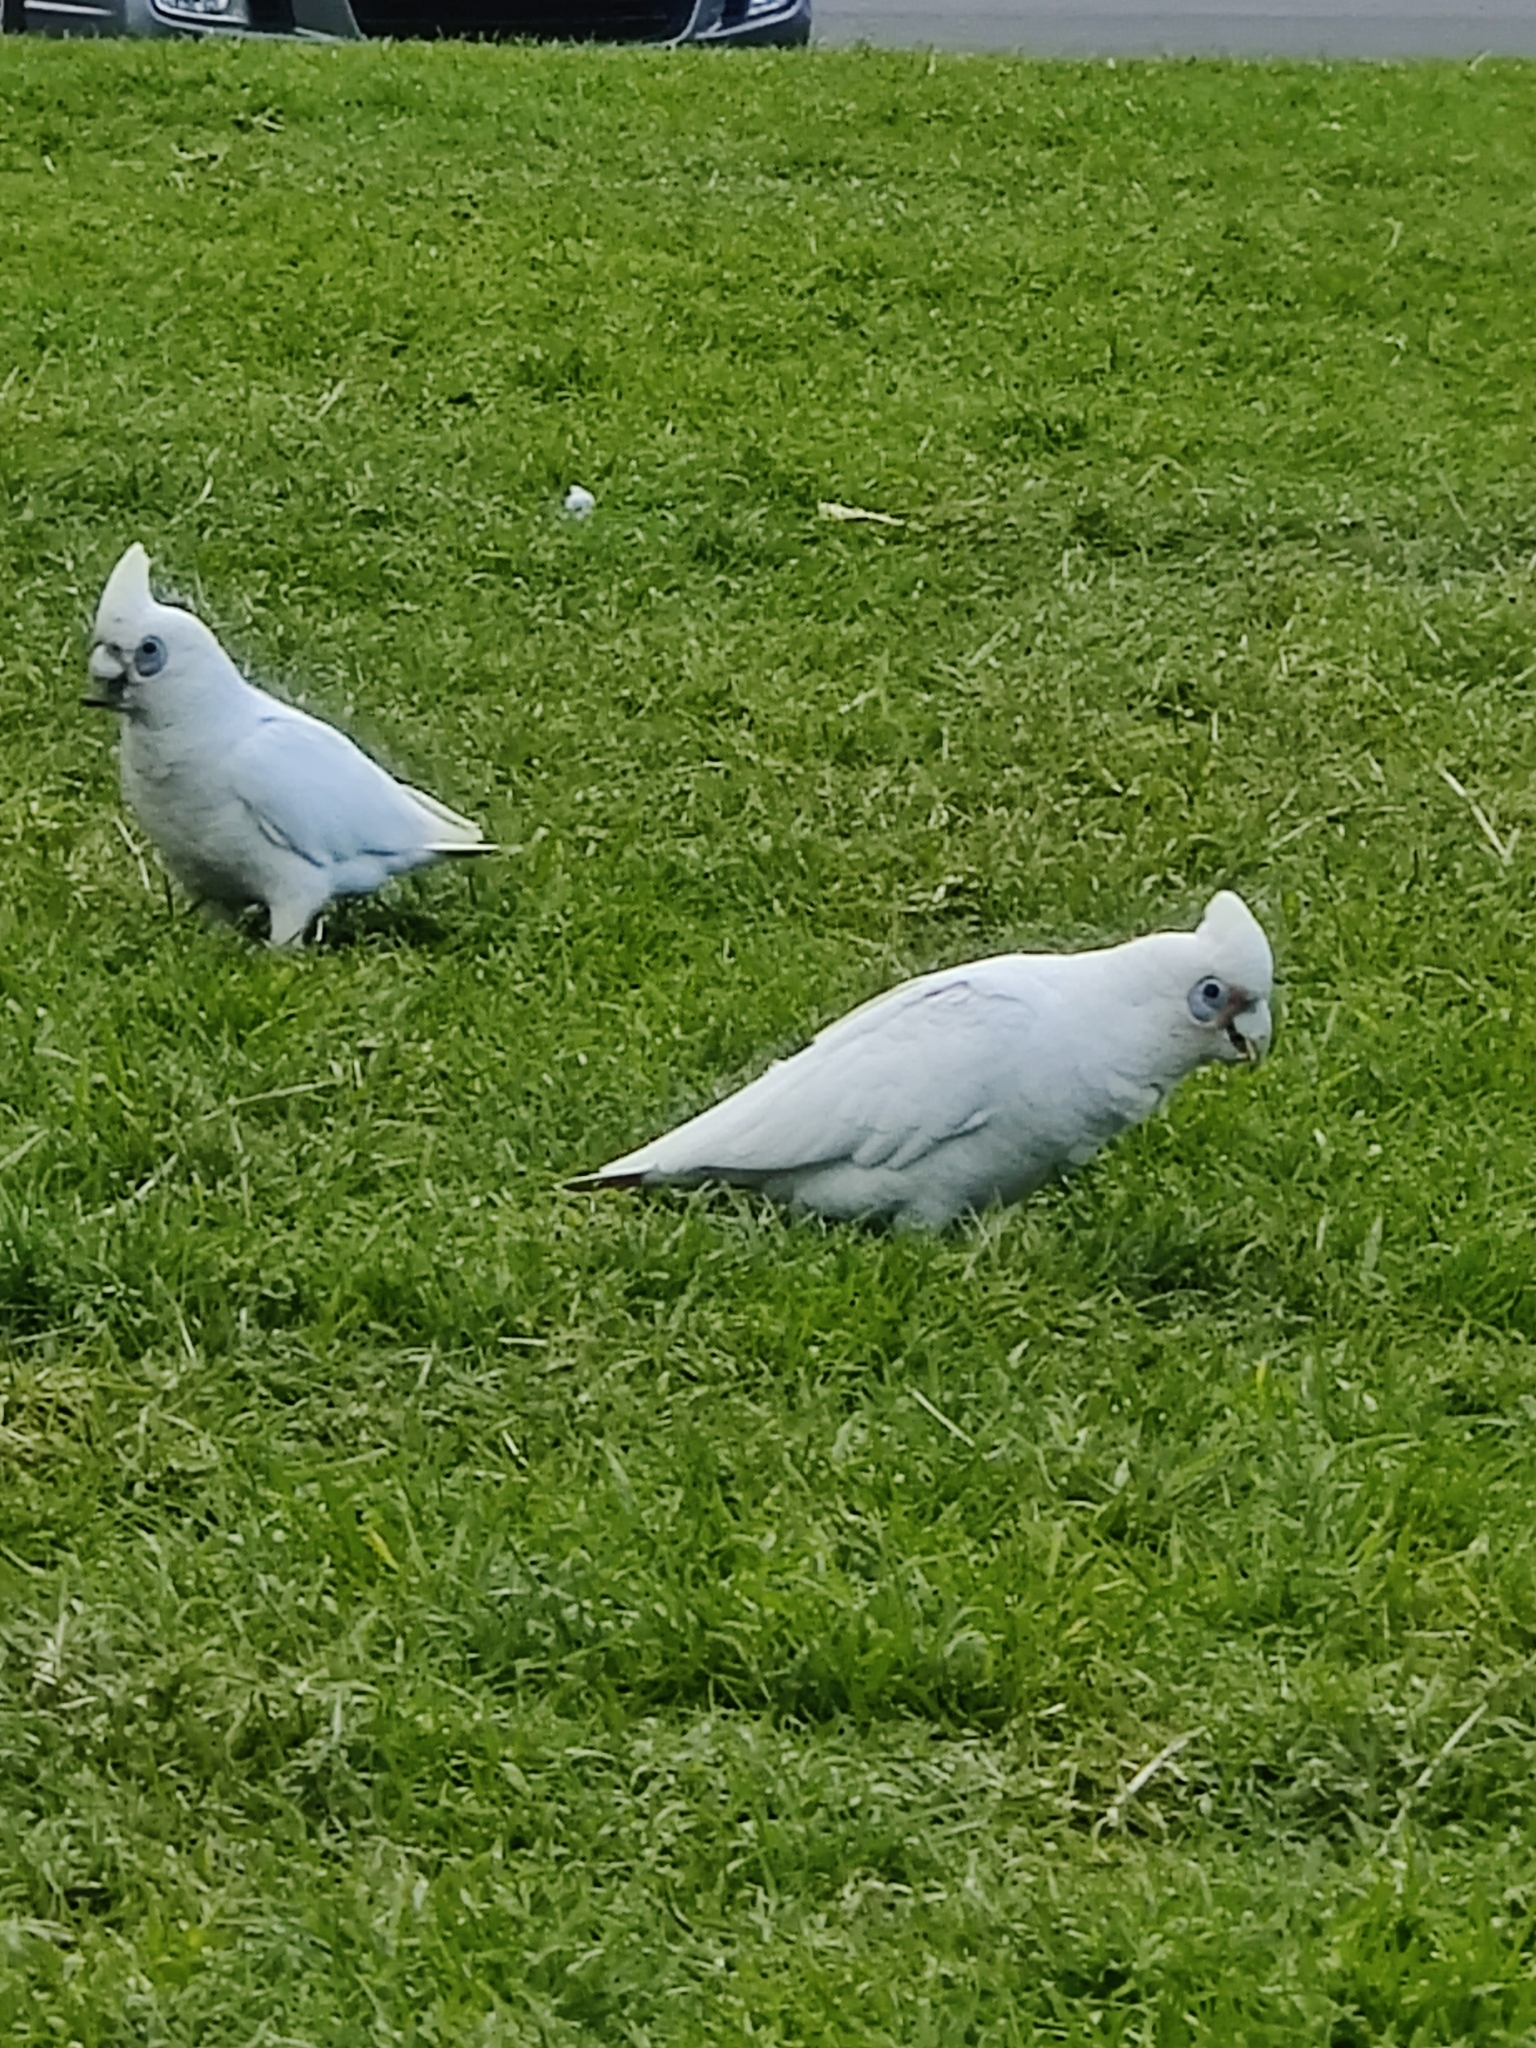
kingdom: Animalia
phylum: Chordata
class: Aves
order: Psittaciformes
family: Psittacidae
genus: Cacatua
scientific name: Cacatua sanguinea
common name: Little corella
